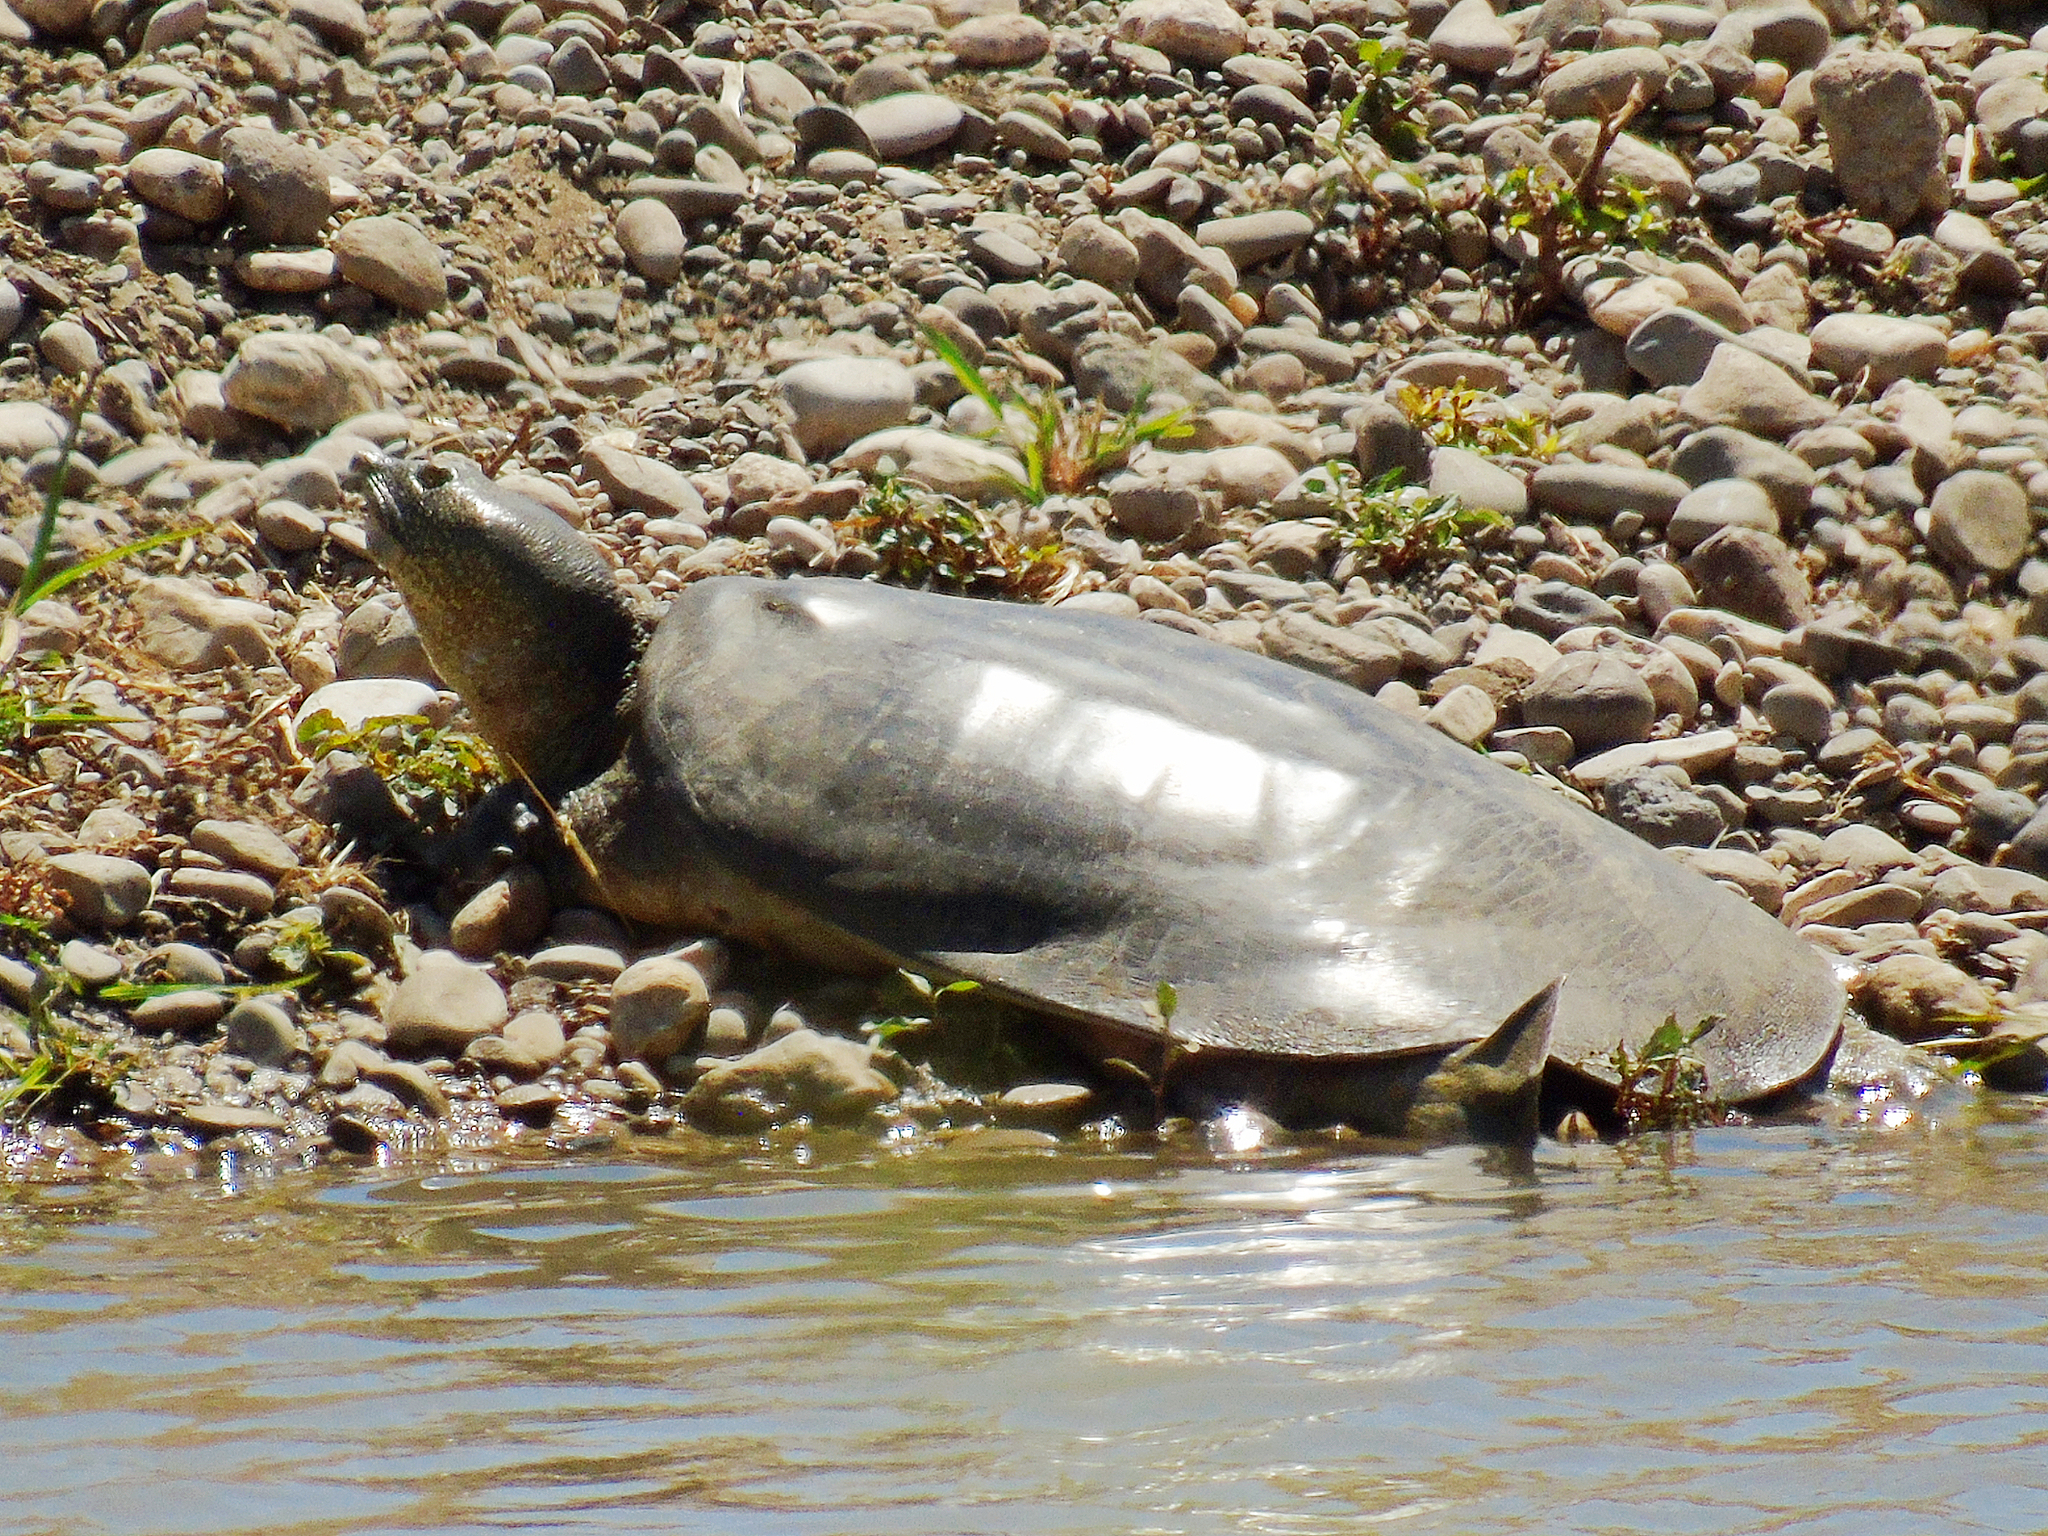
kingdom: Animalia
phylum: Chordata
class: Testudines
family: Trionychidae
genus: Rafetus
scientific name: Rafetus euphraticus
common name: Euphrates softshell
